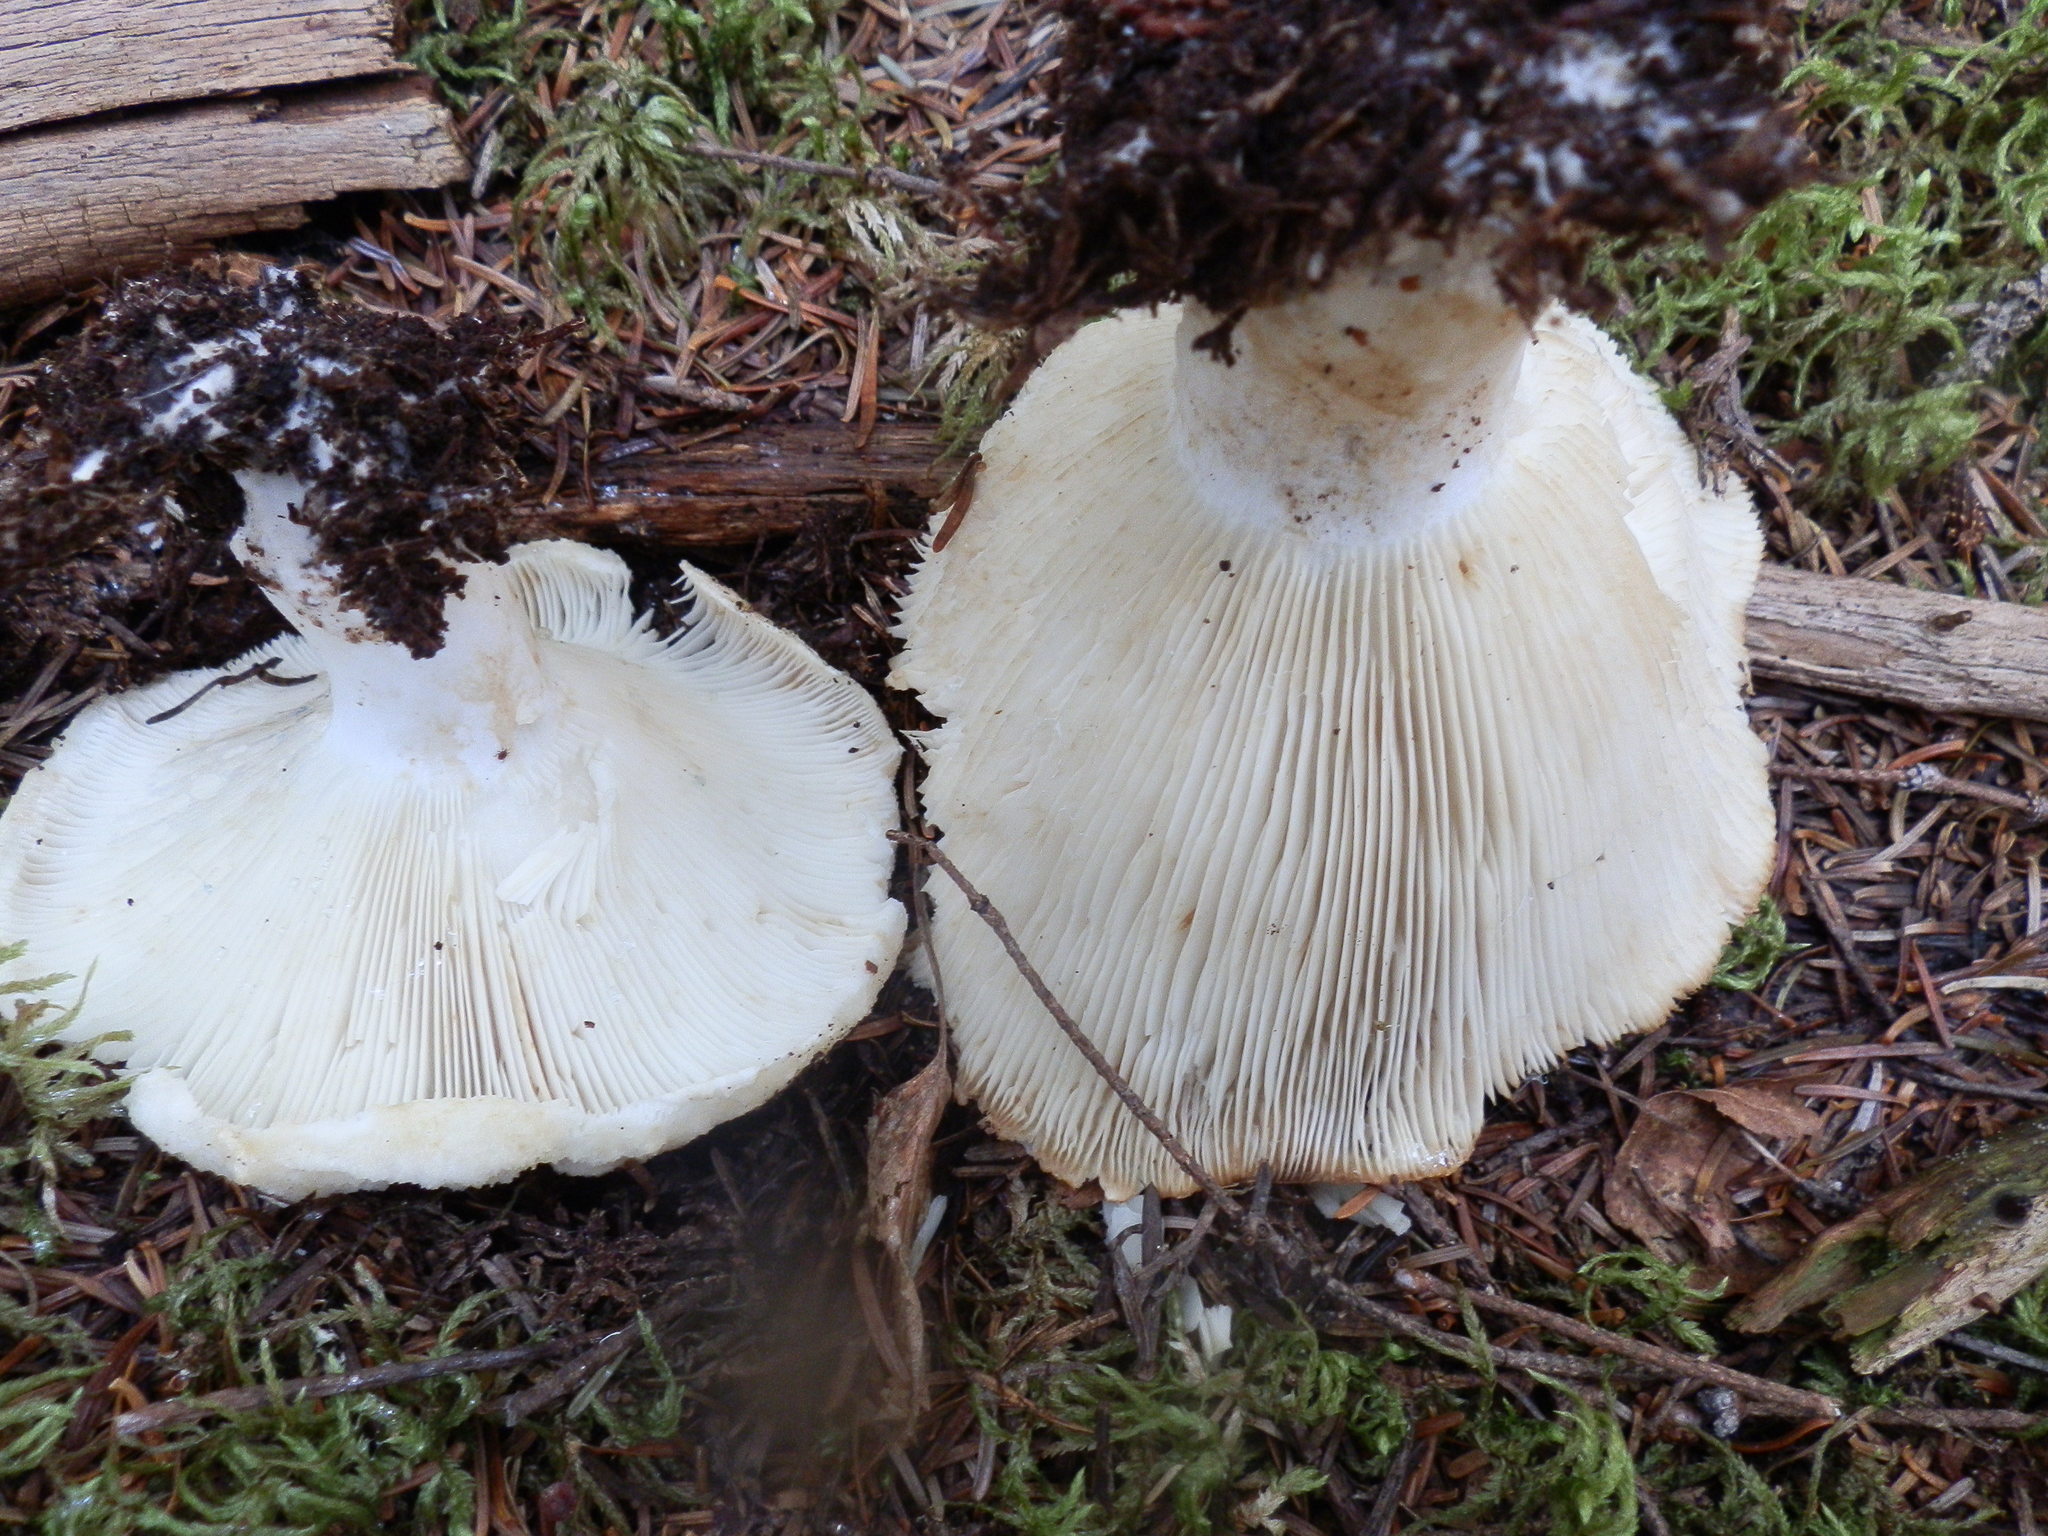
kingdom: Fungi
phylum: Basidiomycota
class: Agaricomycetes
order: Russulales
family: Russulaceae
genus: Russula
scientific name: Russula brevipes
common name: Short-stemmed russula
